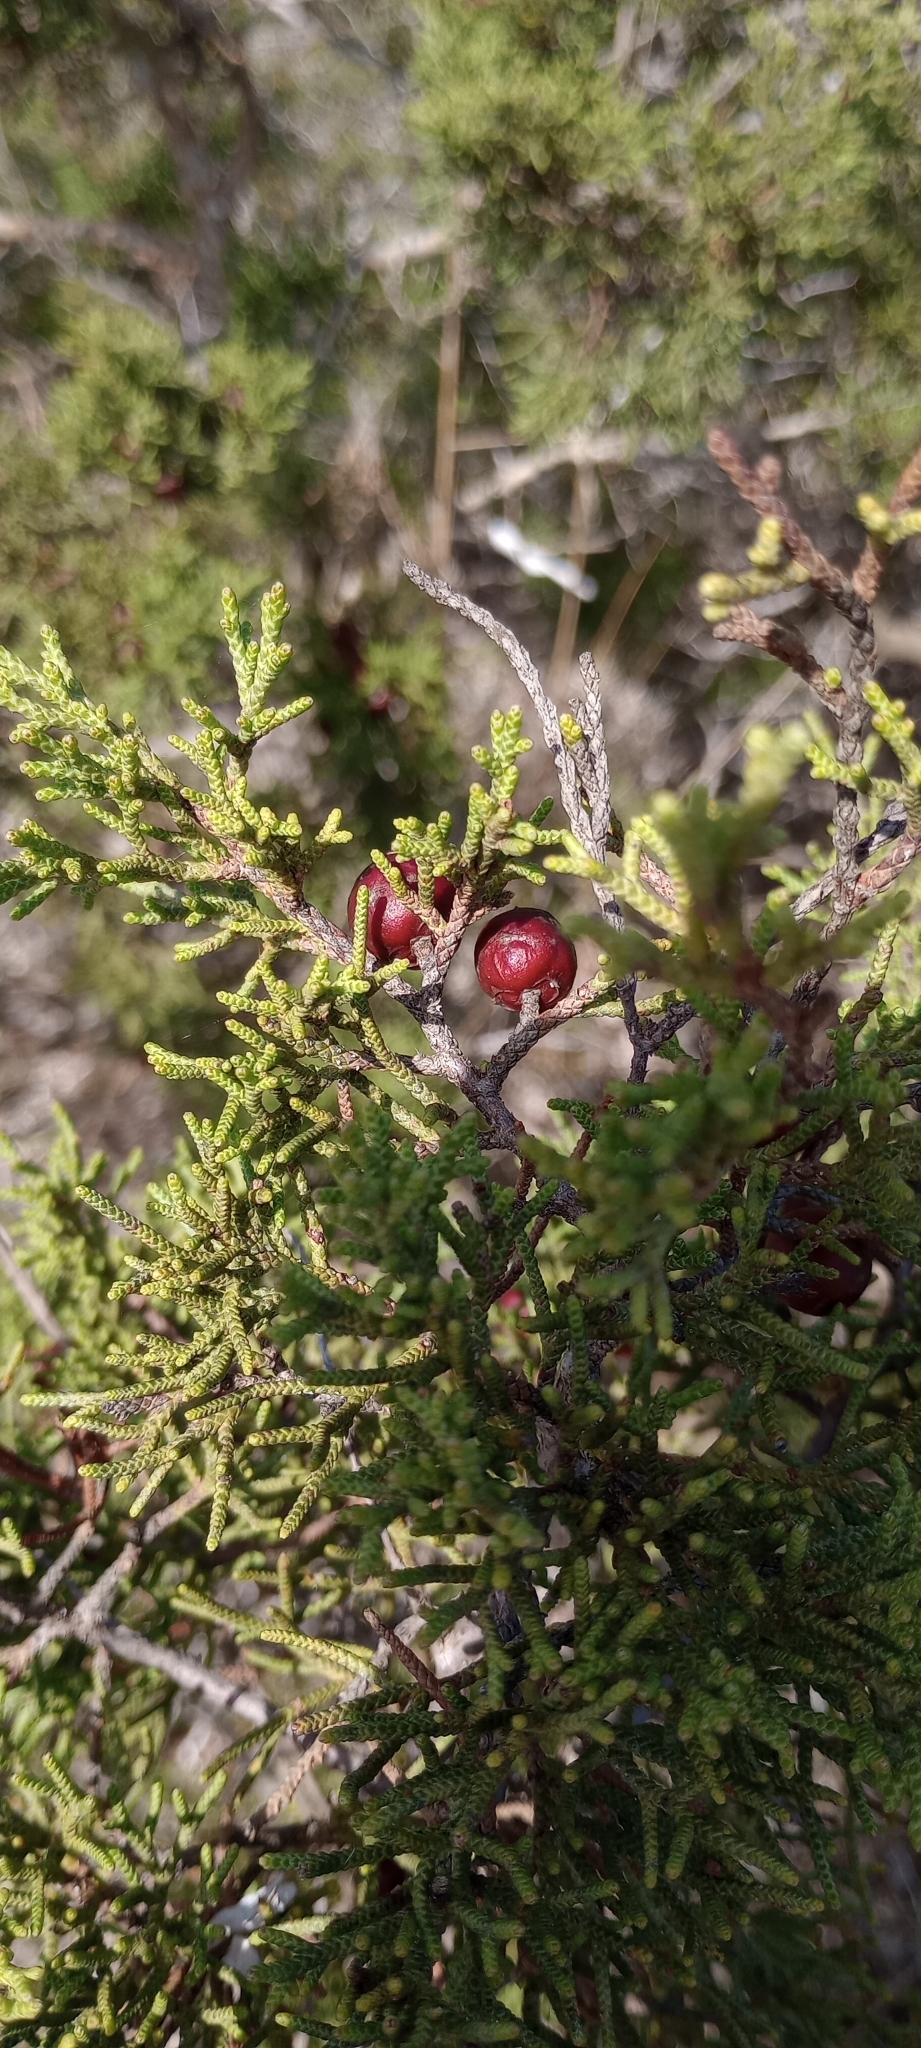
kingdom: Plantae
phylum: Tracheophyta
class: Pinopsida
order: Pinales
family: Cupressaceae
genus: Juniperus
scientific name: Juniperus phoenicea
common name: Phoenician juniper
